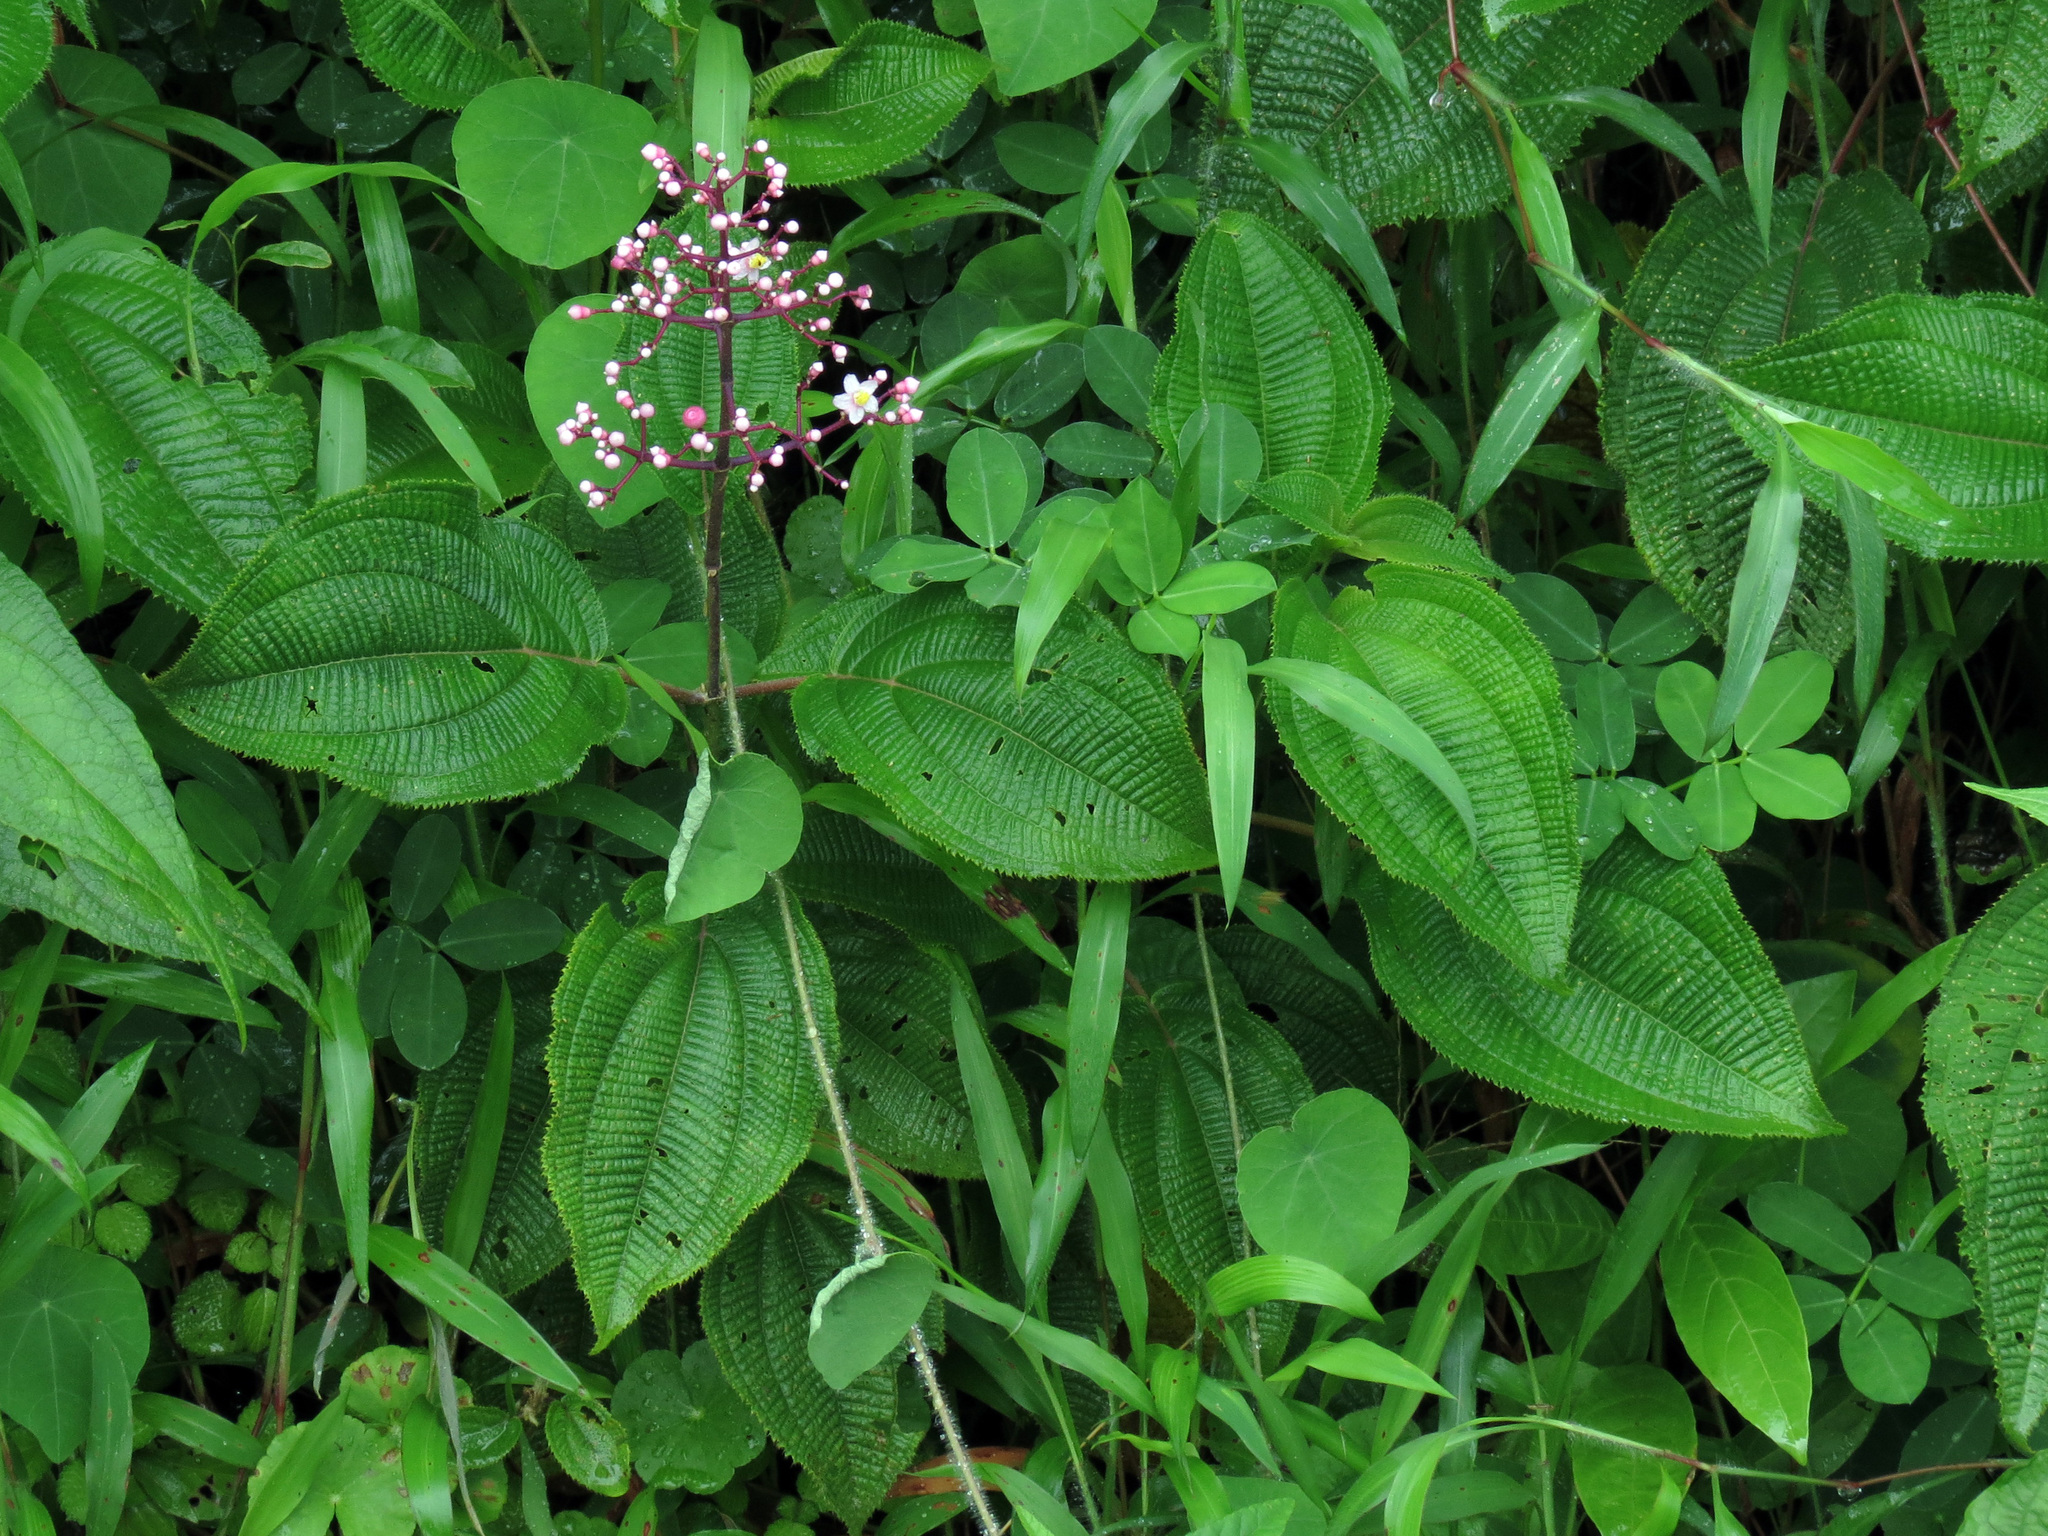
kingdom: Plantae
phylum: Tracheophyta
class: Magnoliopsida
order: Myrtales
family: Melastomataceae
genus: Miconia
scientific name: Miconia subcrustulata
